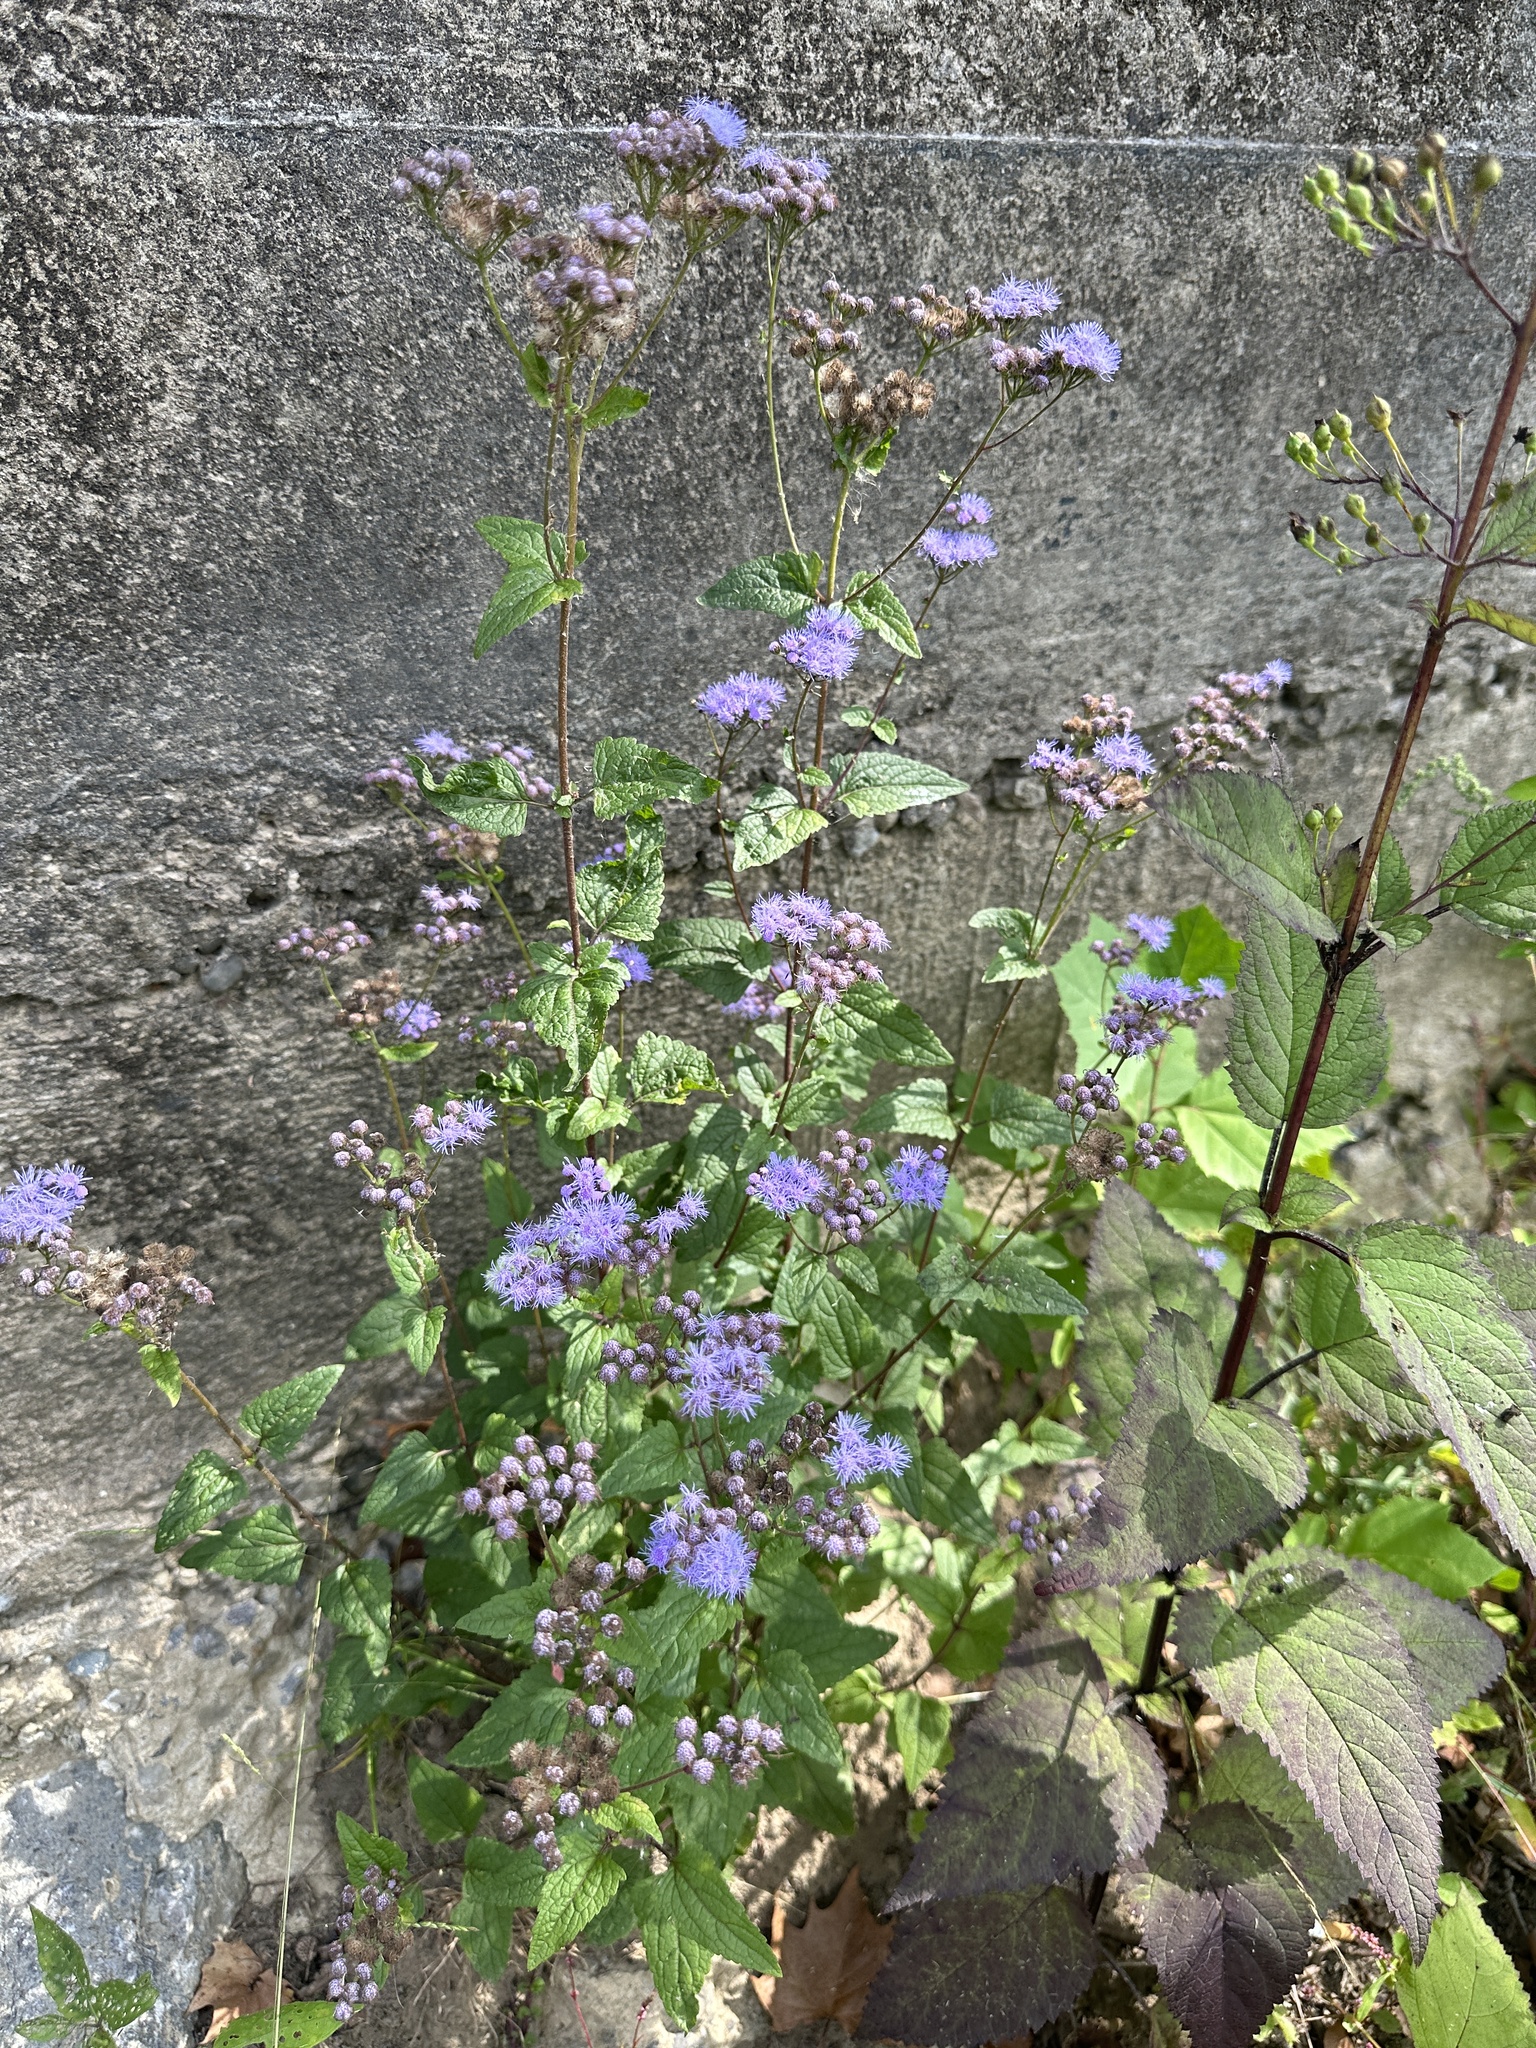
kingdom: Plantae
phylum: Tracheophyta
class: Magnoliopsida
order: Asterales
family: Asteraceae
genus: Conoclinium
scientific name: Conoclinium coelestinum
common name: Blue mistflower
